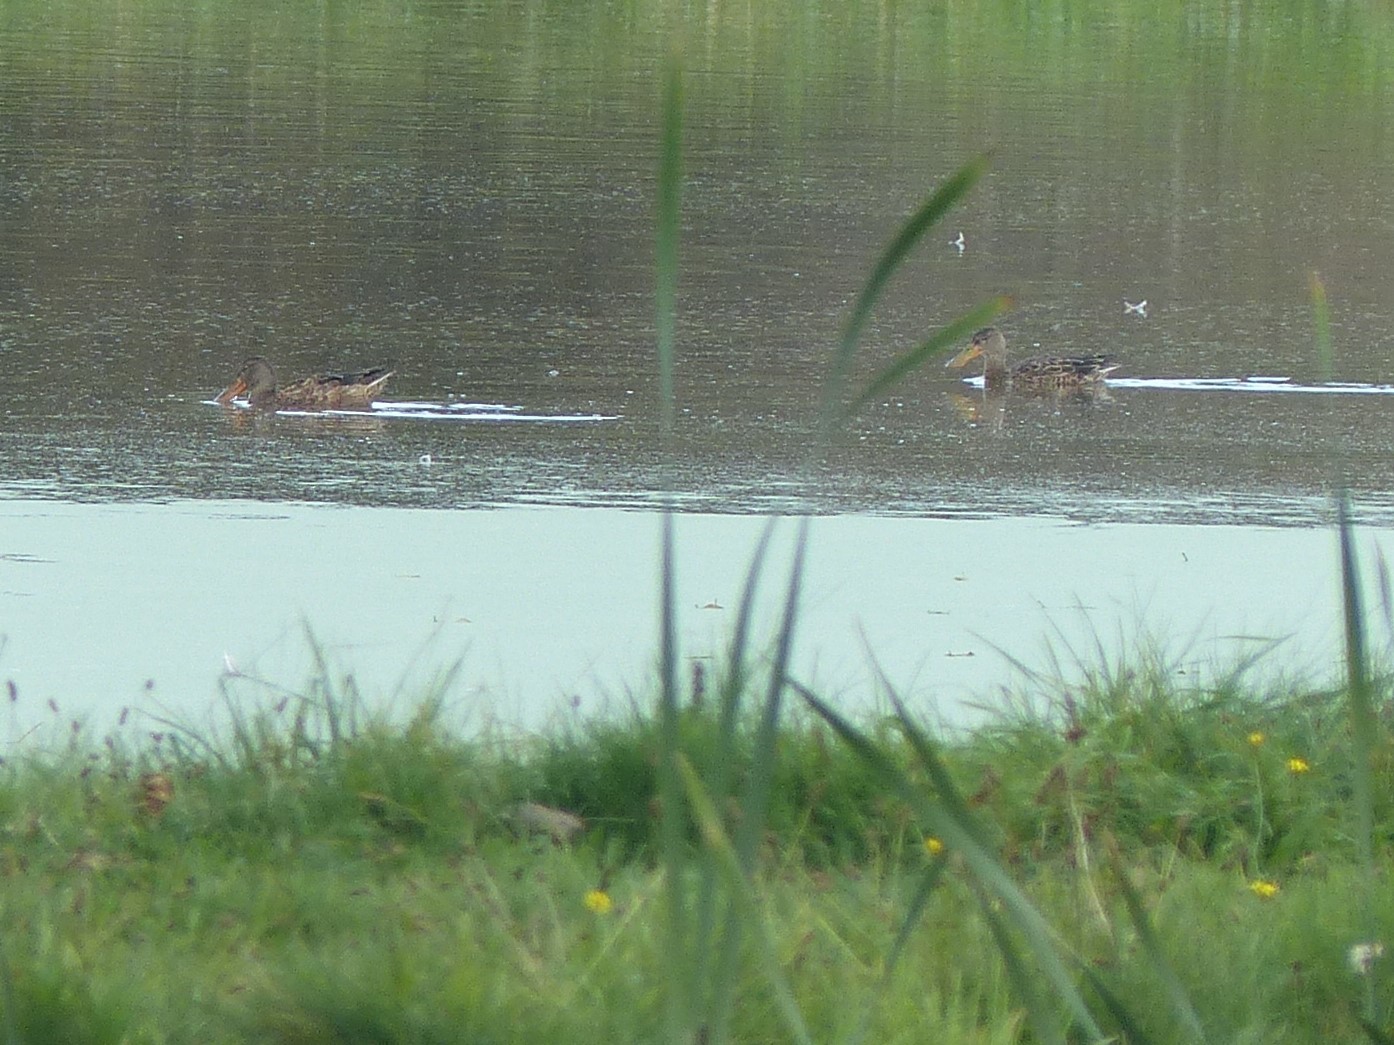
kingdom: Animalia
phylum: Chordata
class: Aves
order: Anseriformes
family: Anatidae
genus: Spatula
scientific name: Spatula clypeata
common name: Northern shoveler
